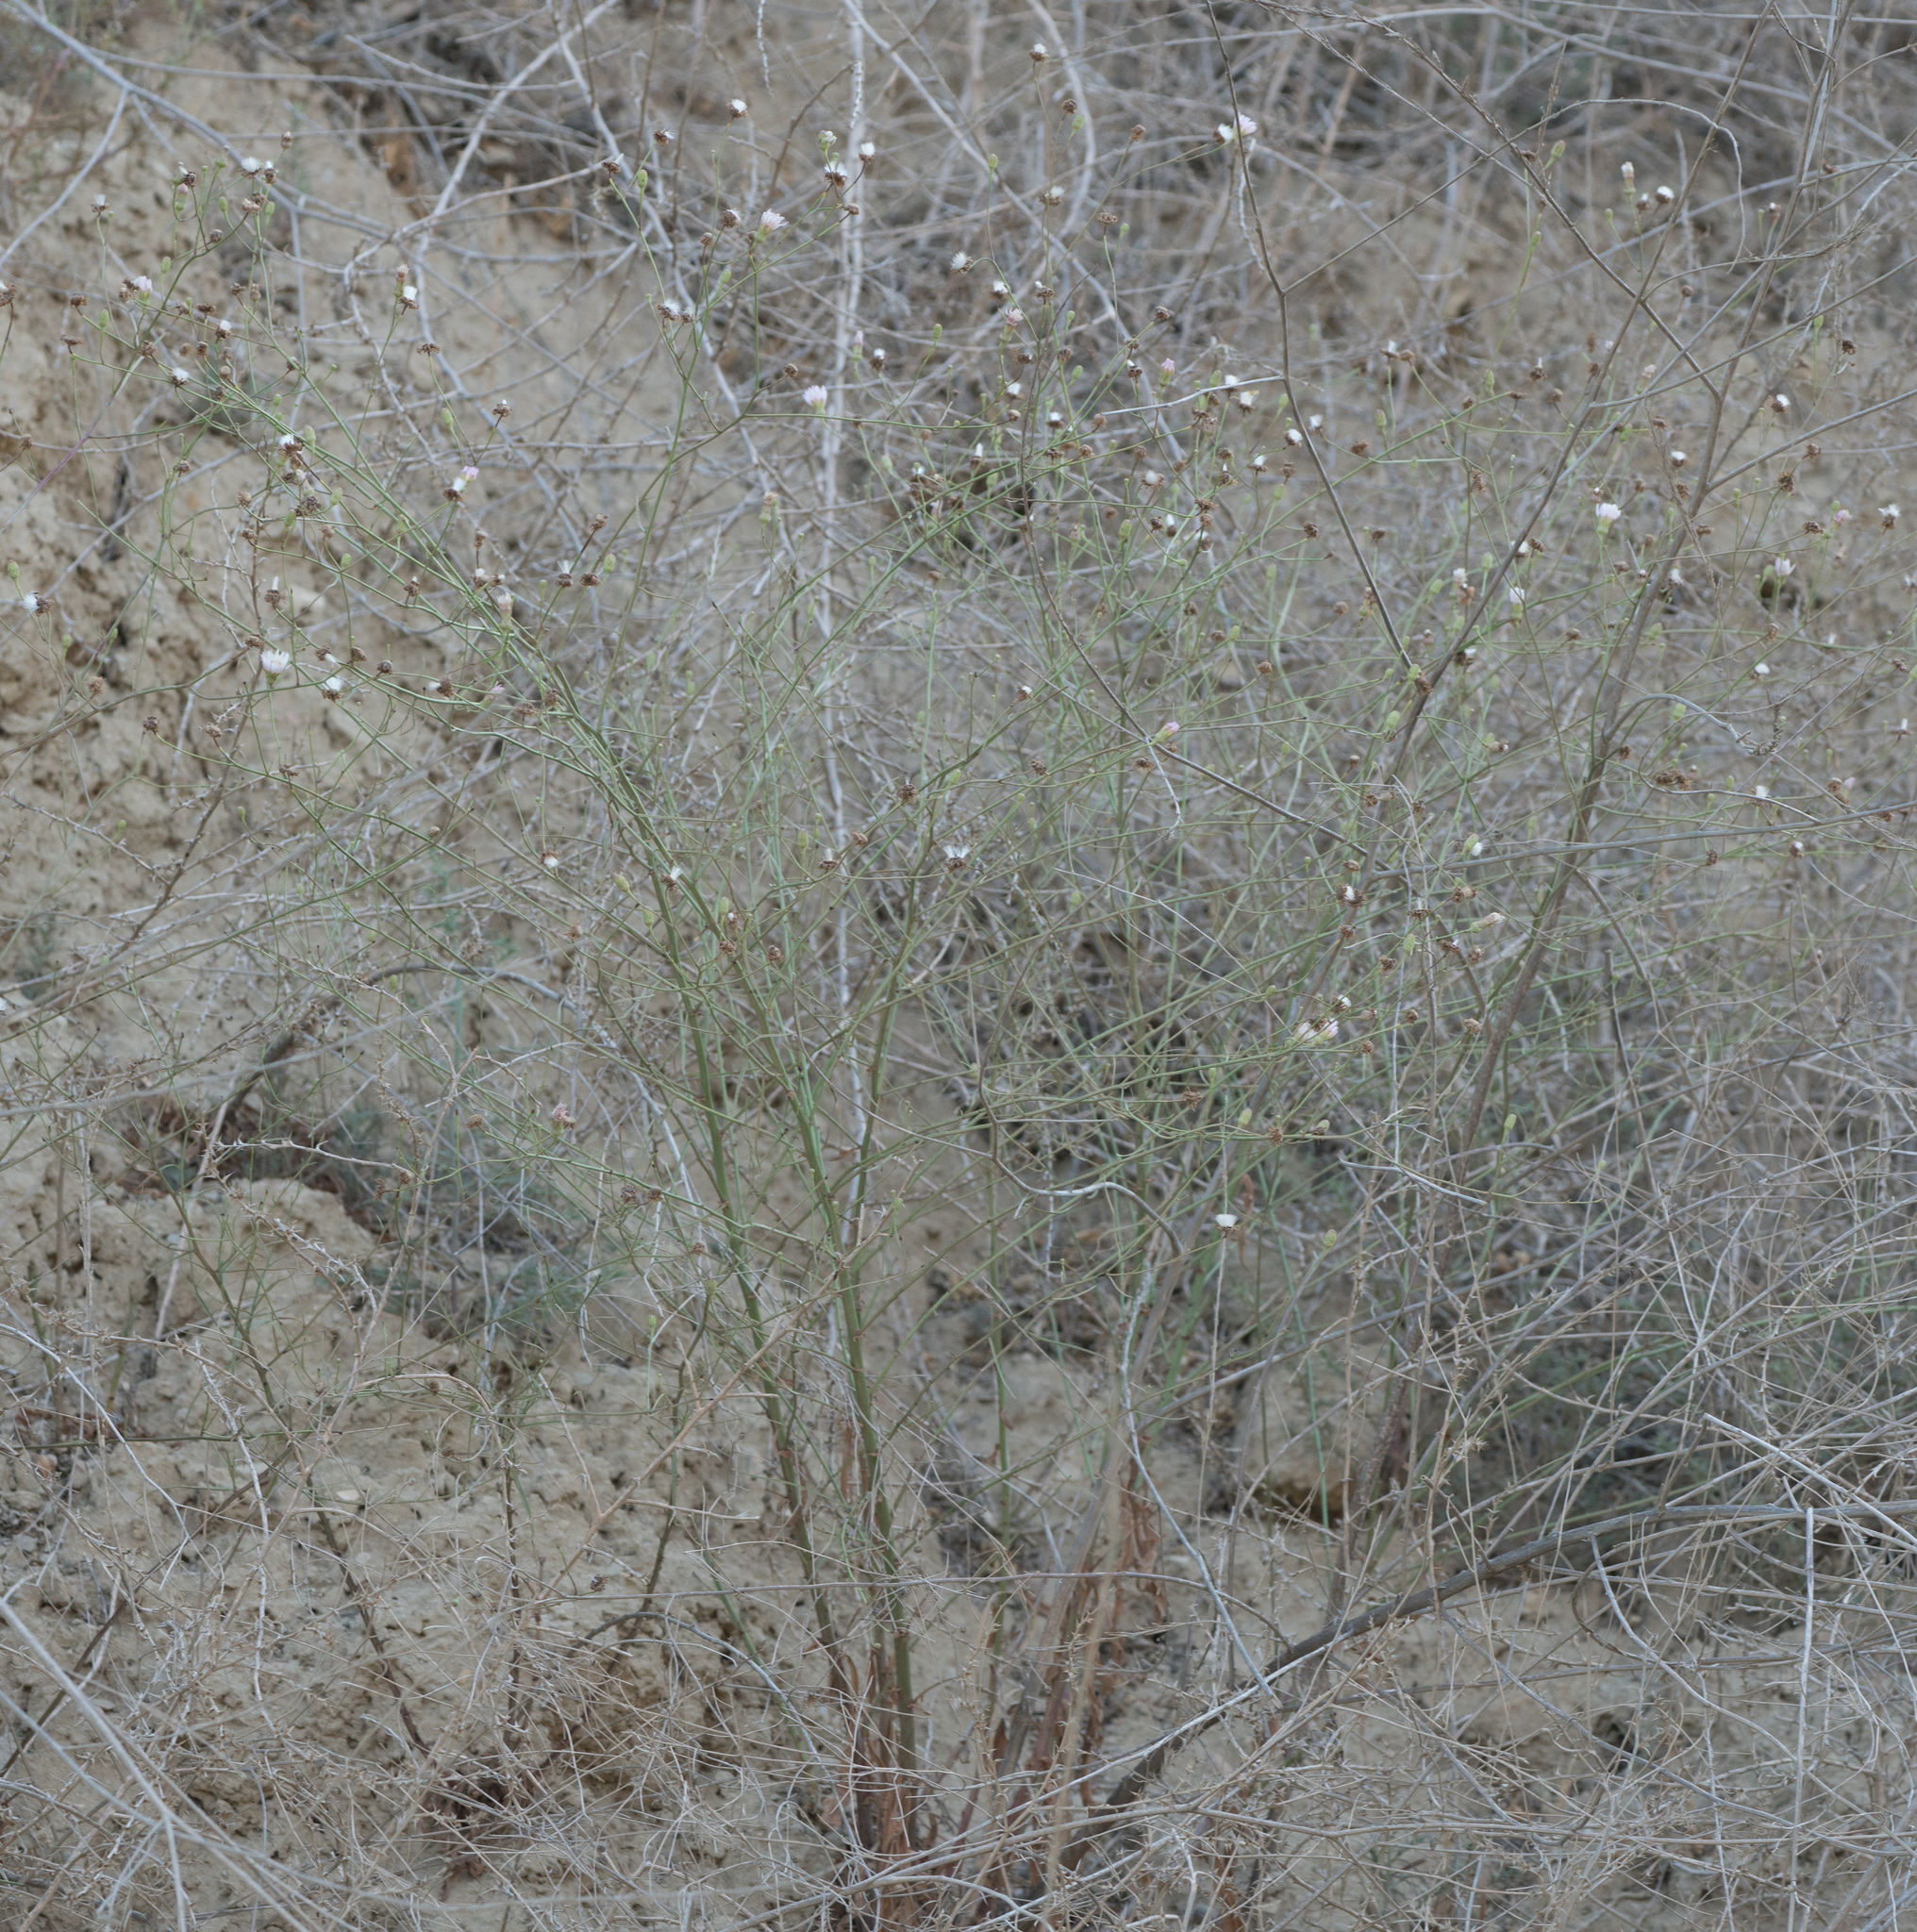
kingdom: Plantae
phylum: Tracheophyta
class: Magnoliopsida
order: Asterales
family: Asteraceae
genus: Malacothrix
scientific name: Malacothrix saxatilis
